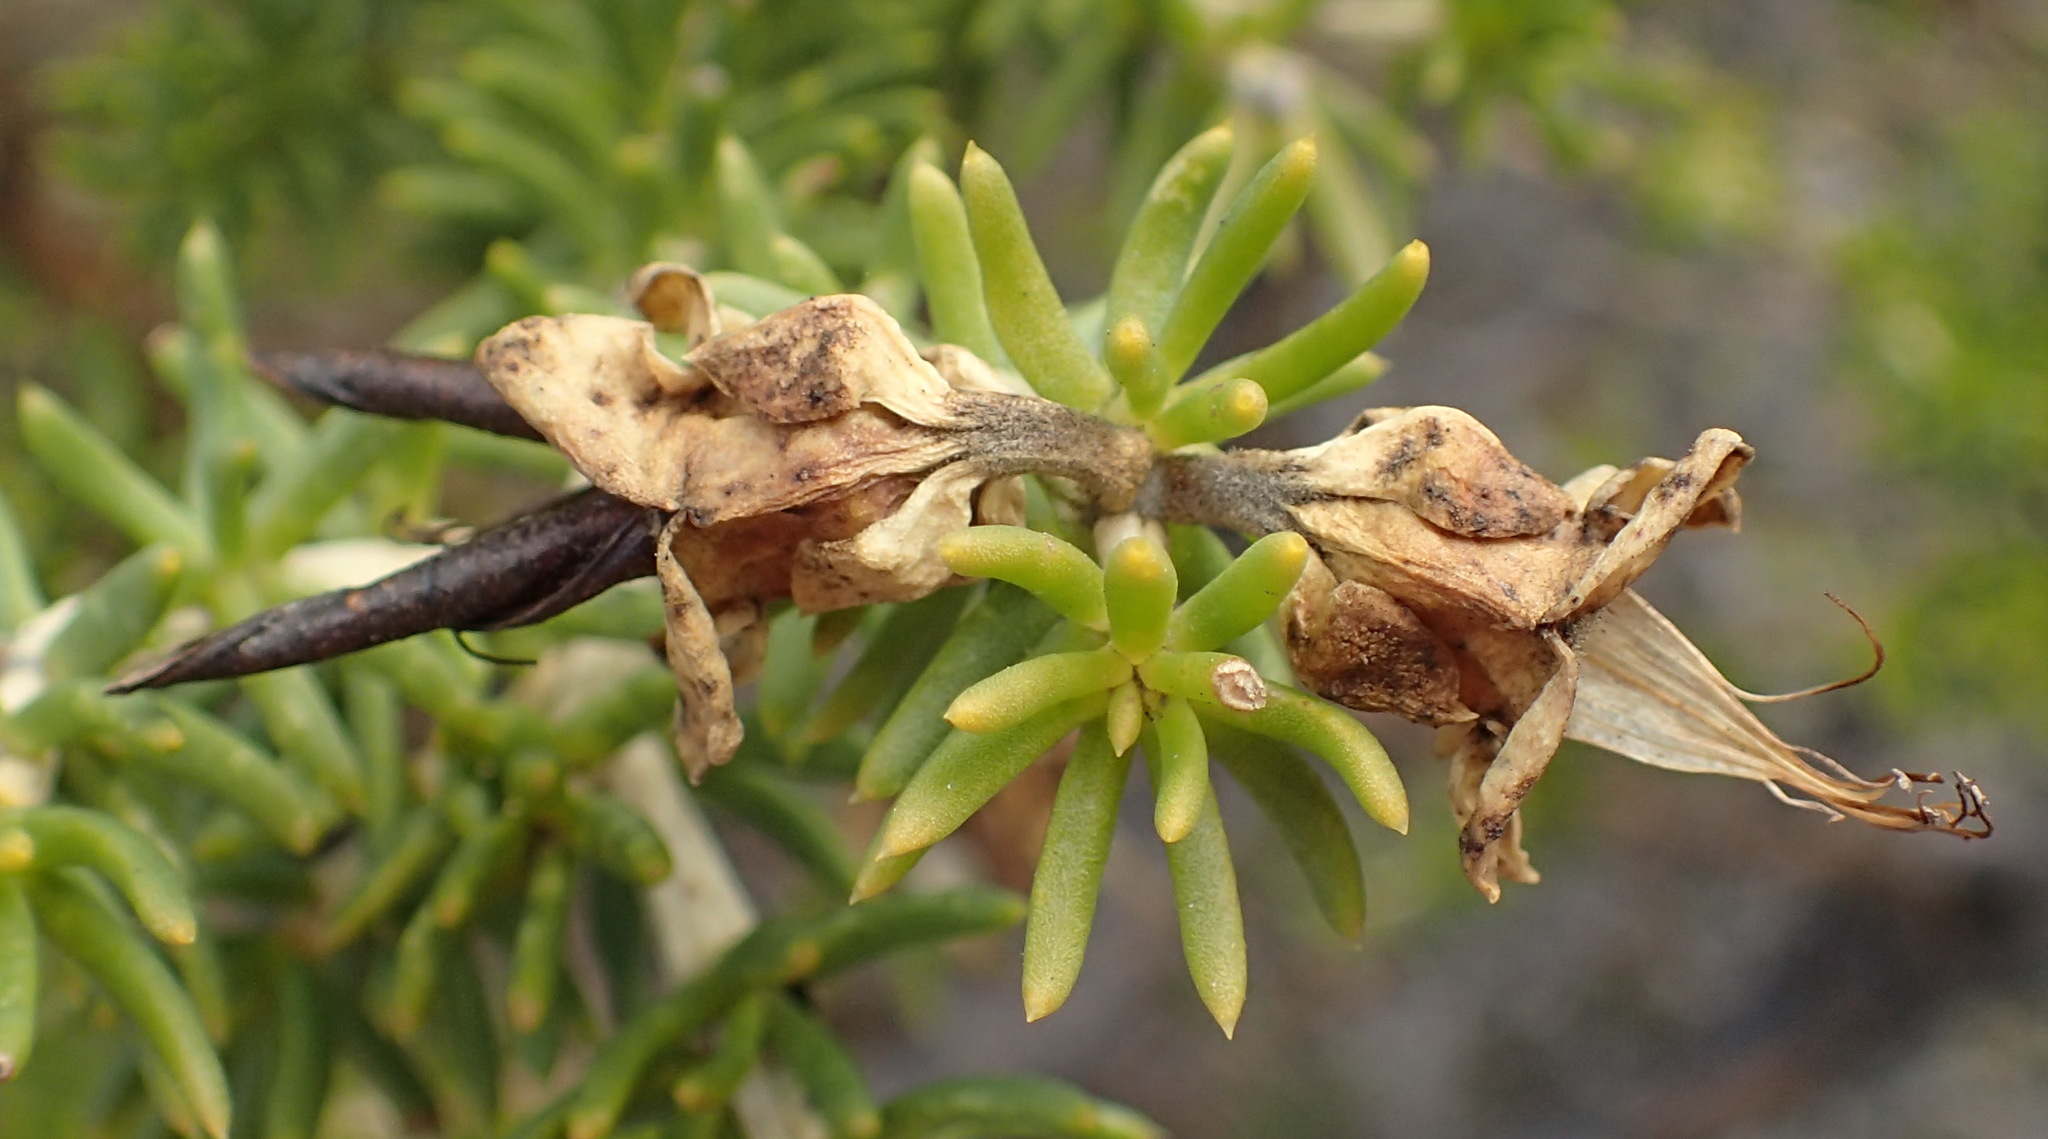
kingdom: Plantae
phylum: Tracheophyta
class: Magnoliopsida
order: Fabales
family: Fabaceae
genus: Aspalathus
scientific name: Aspalathus capensis
